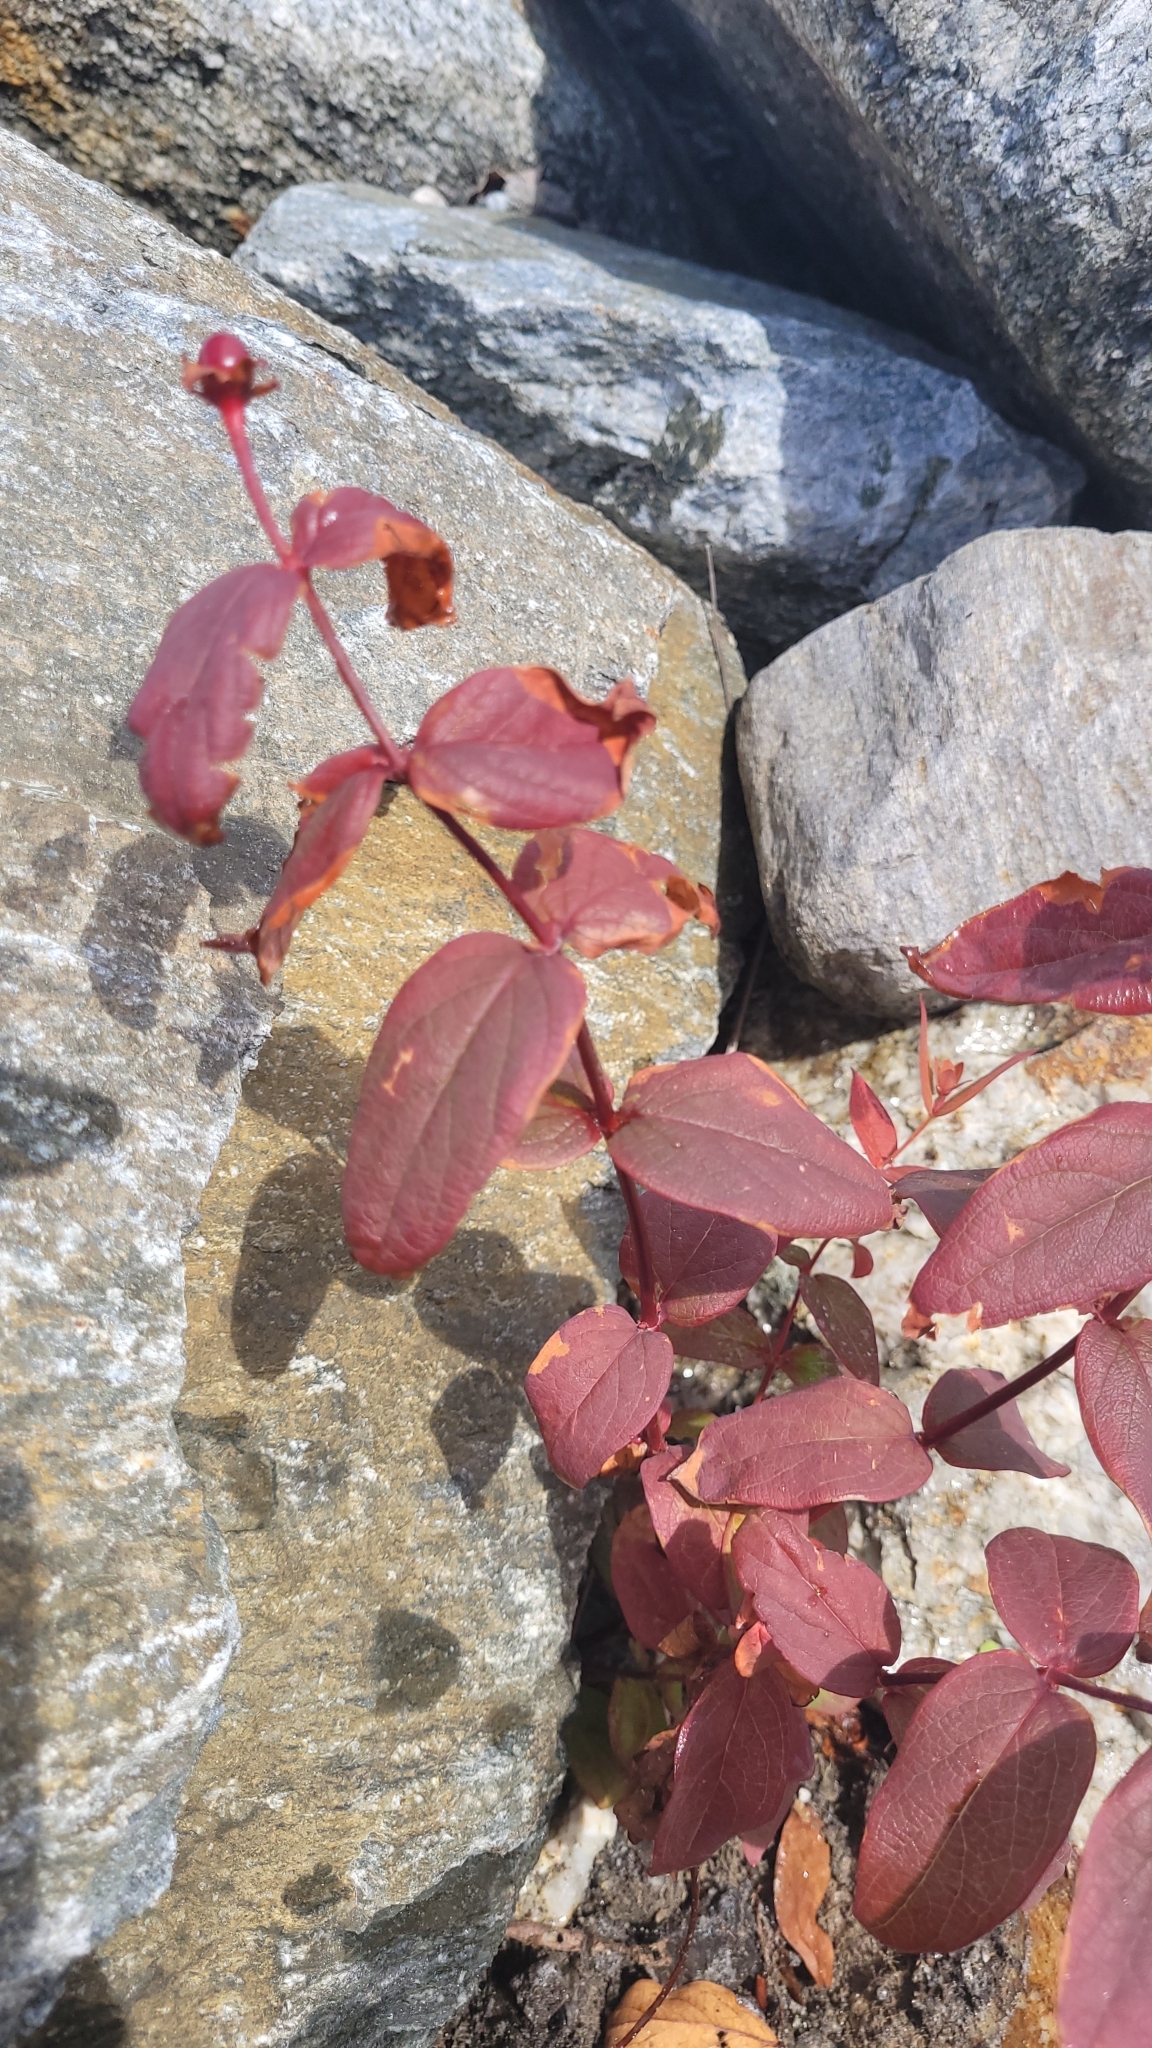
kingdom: Plantae
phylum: Tracheophyta
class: Magnoliopsida
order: Malpighiales
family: Hypericaceae
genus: Hypericum
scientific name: Hypericum androsaemum
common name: Sweet-amber
